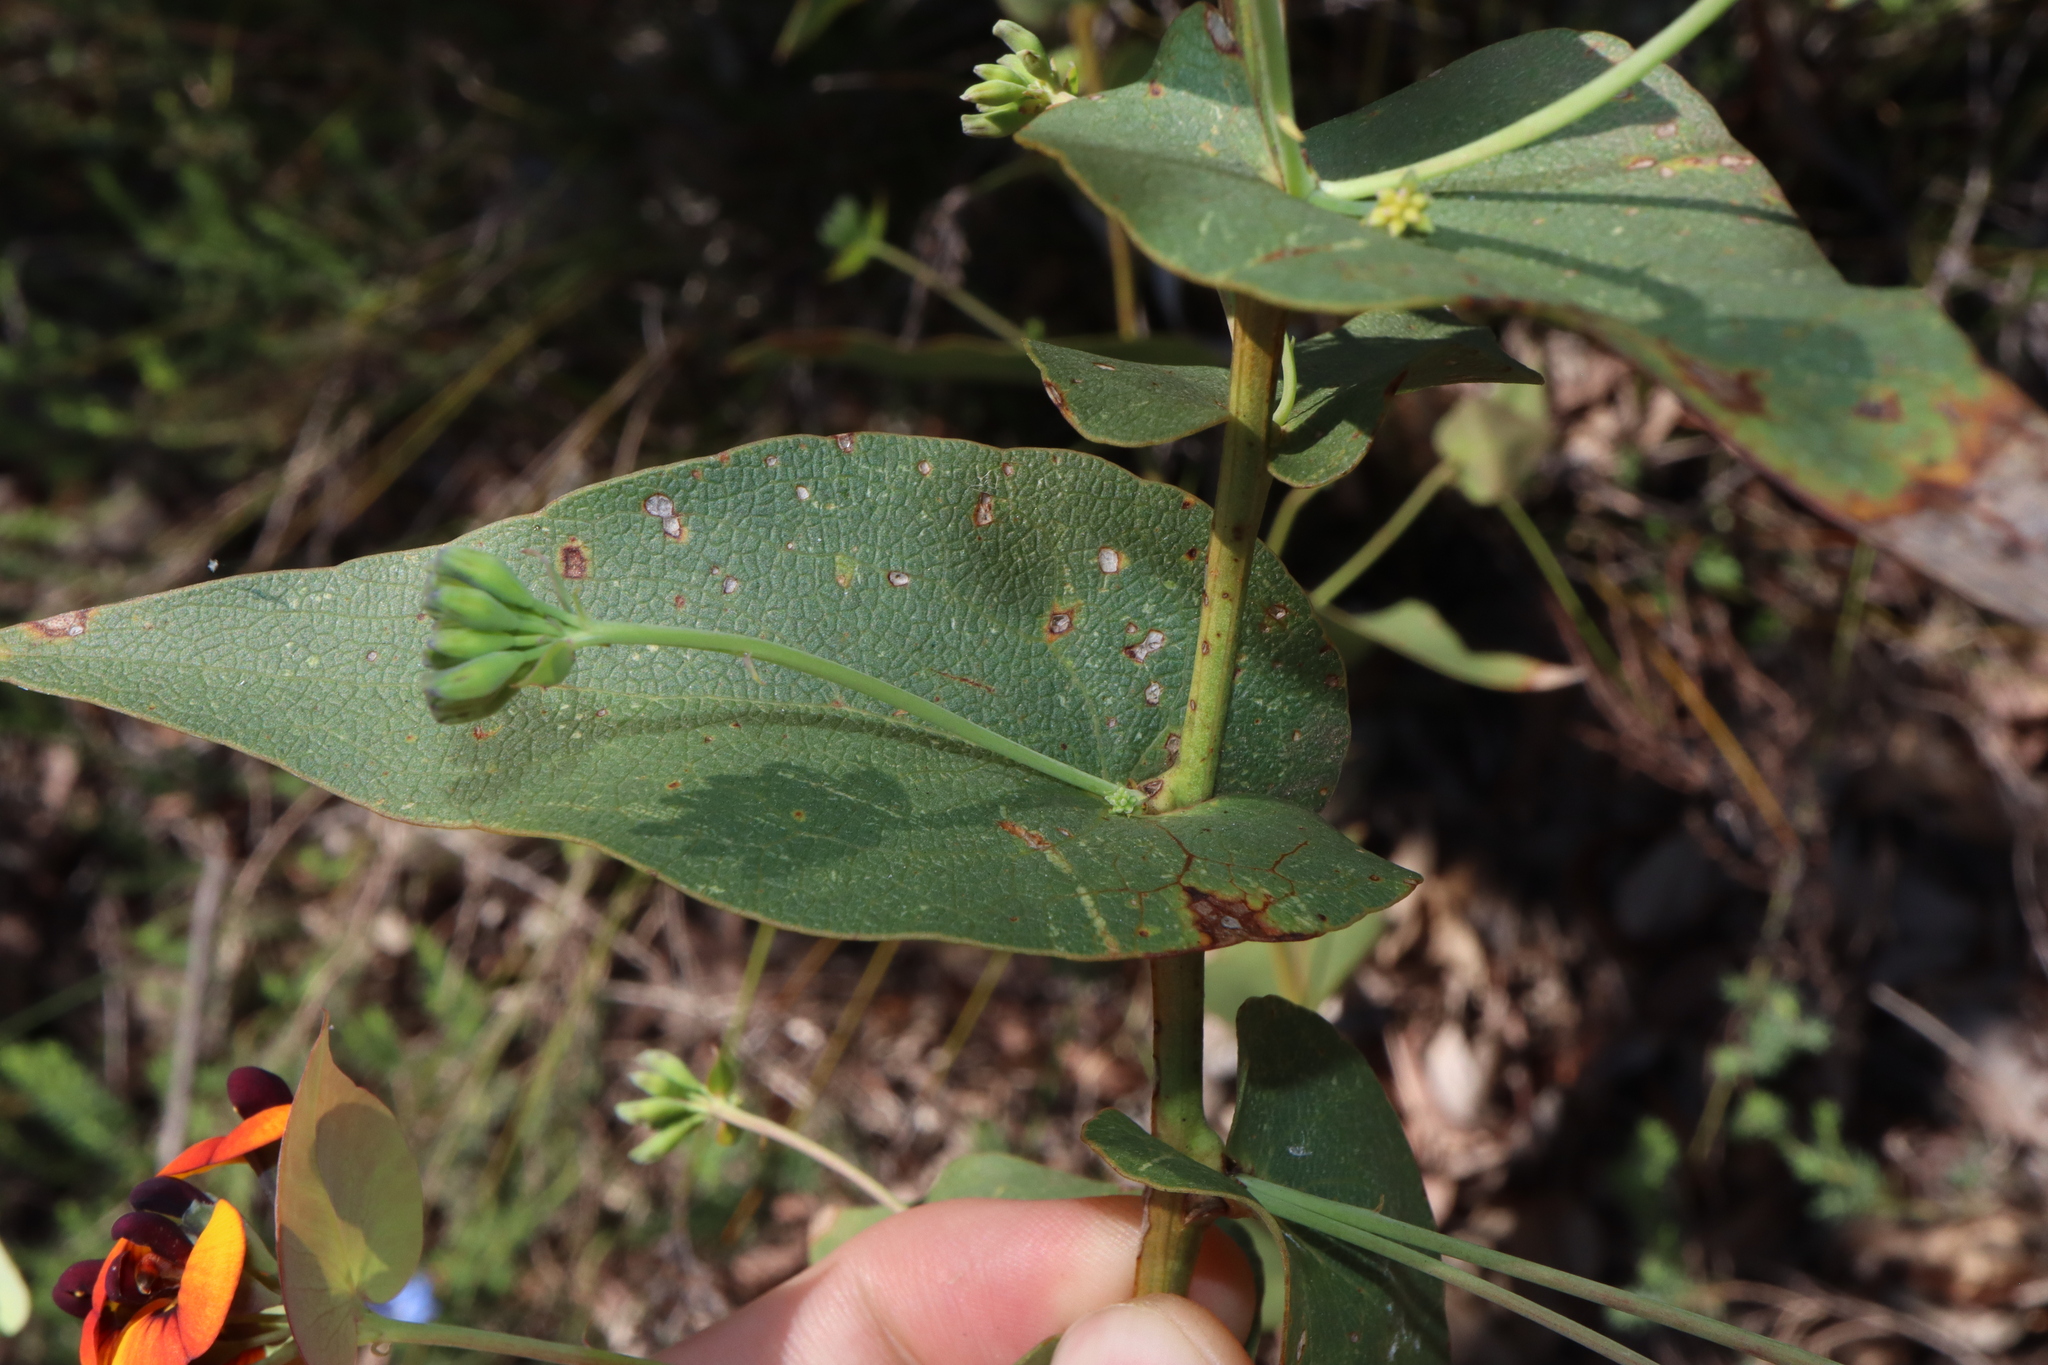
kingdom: Plantae
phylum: Tracheophyta
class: Magnoliopsida
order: Fabales
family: Fabaceae
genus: Daviesia
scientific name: Daviesia cordata
